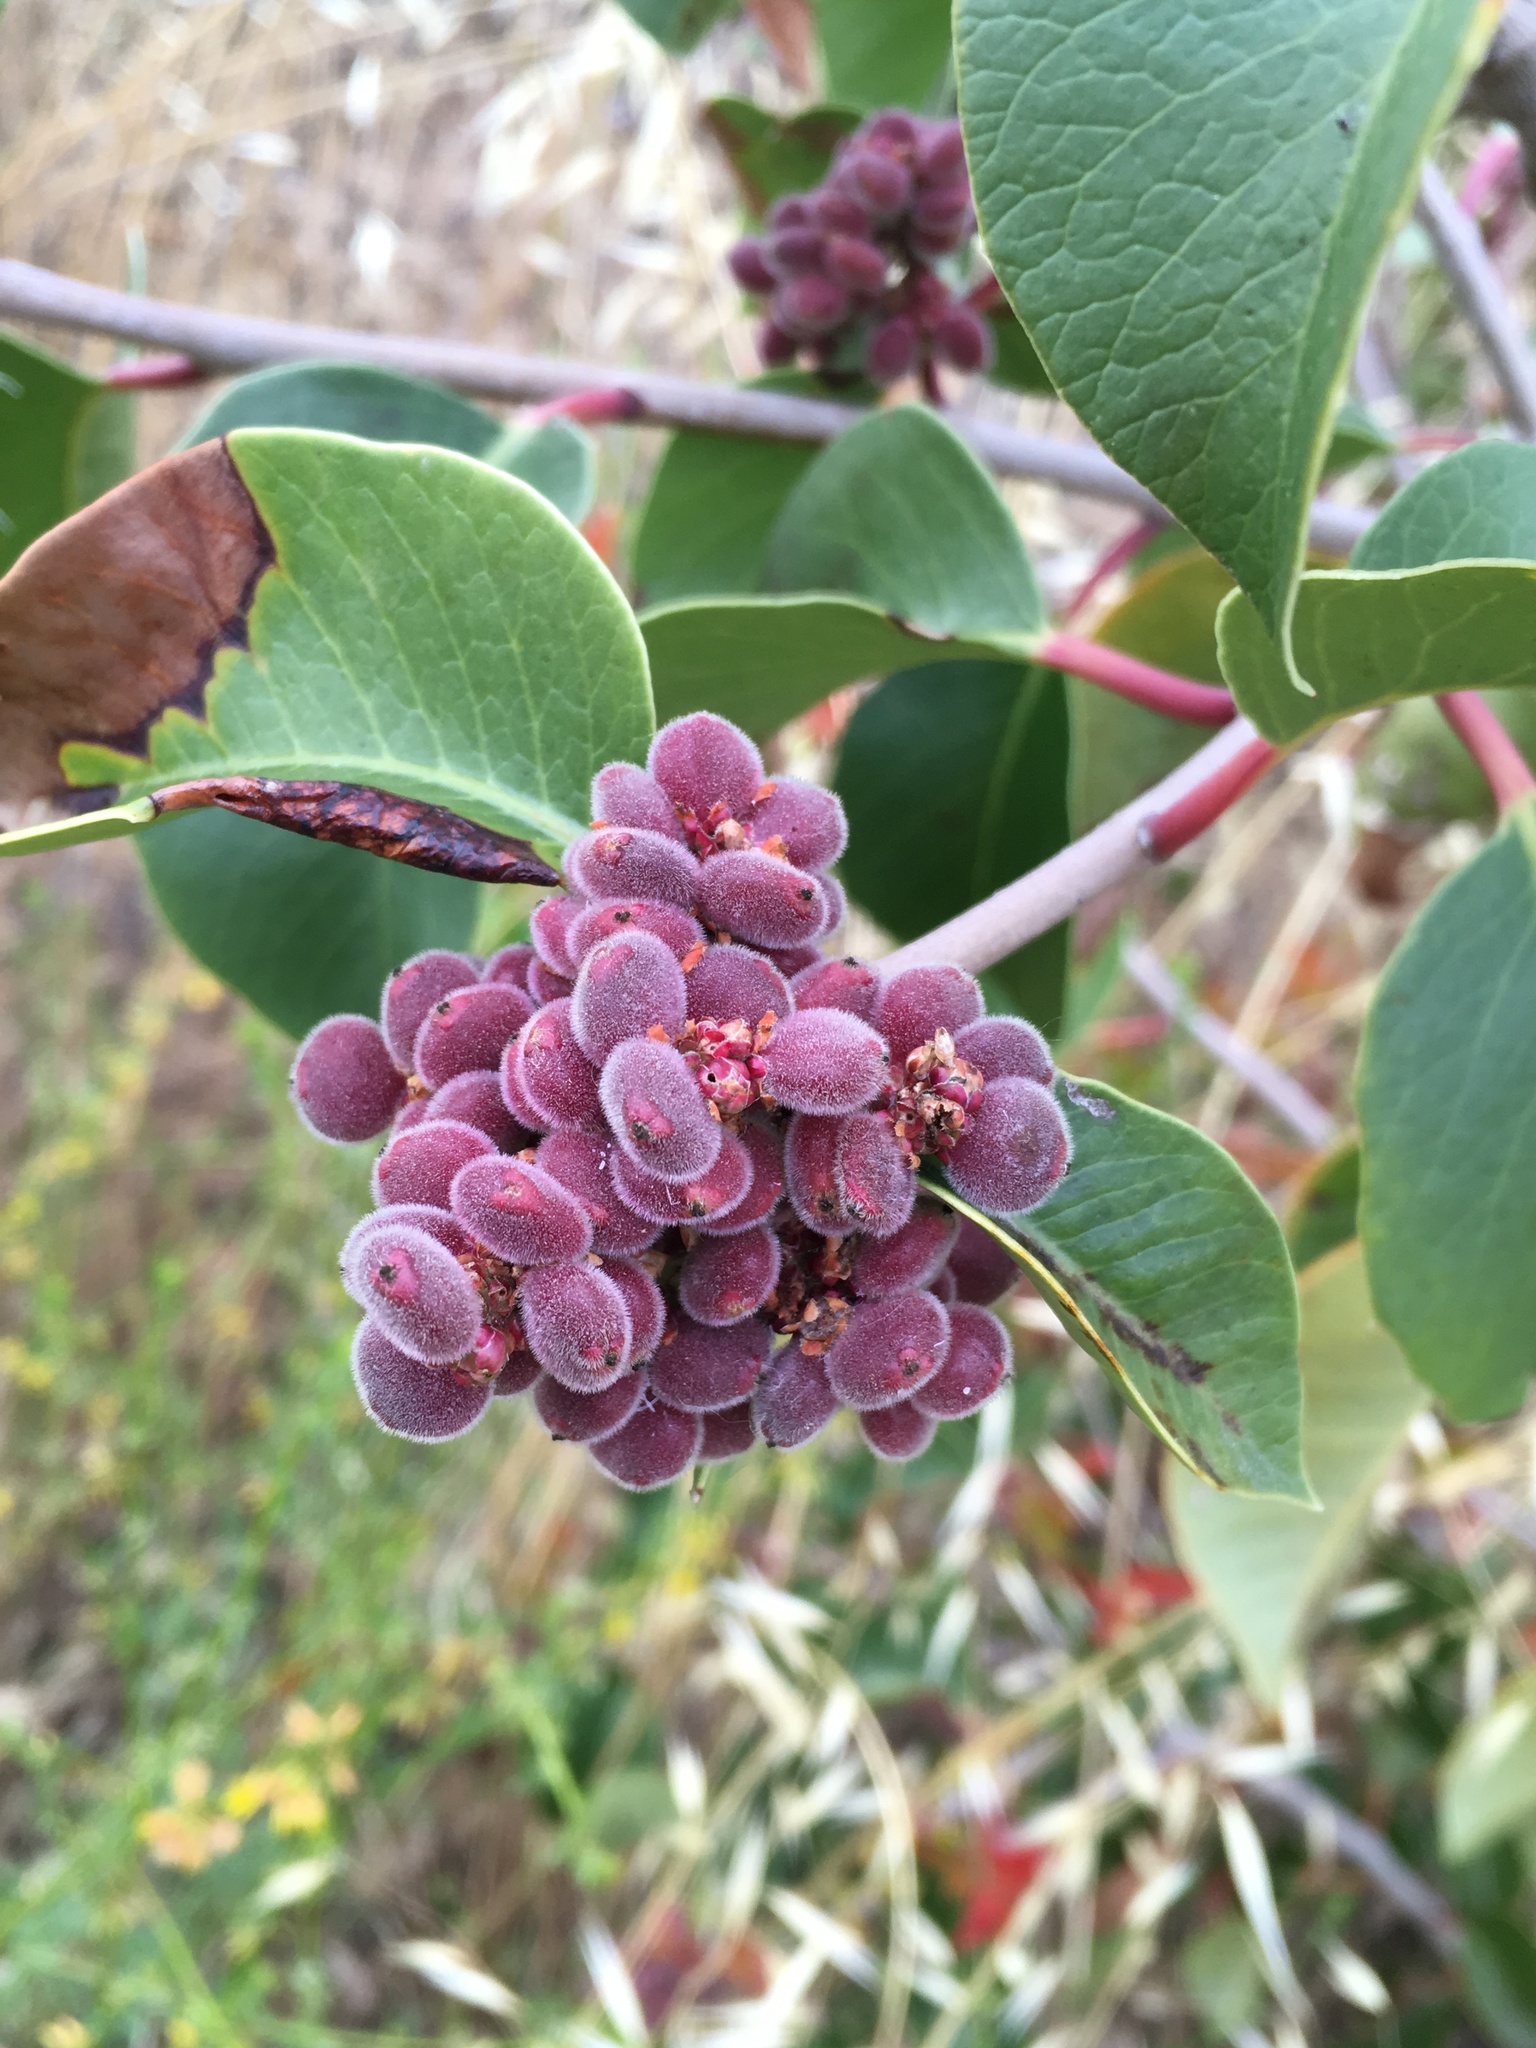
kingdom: Plantae
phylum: Tracheophyta
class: Magnoliopsida
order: Sapindales
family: Anacardiaceae
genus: Rhus
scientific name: Rhus ovata
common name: Sugar sumac
